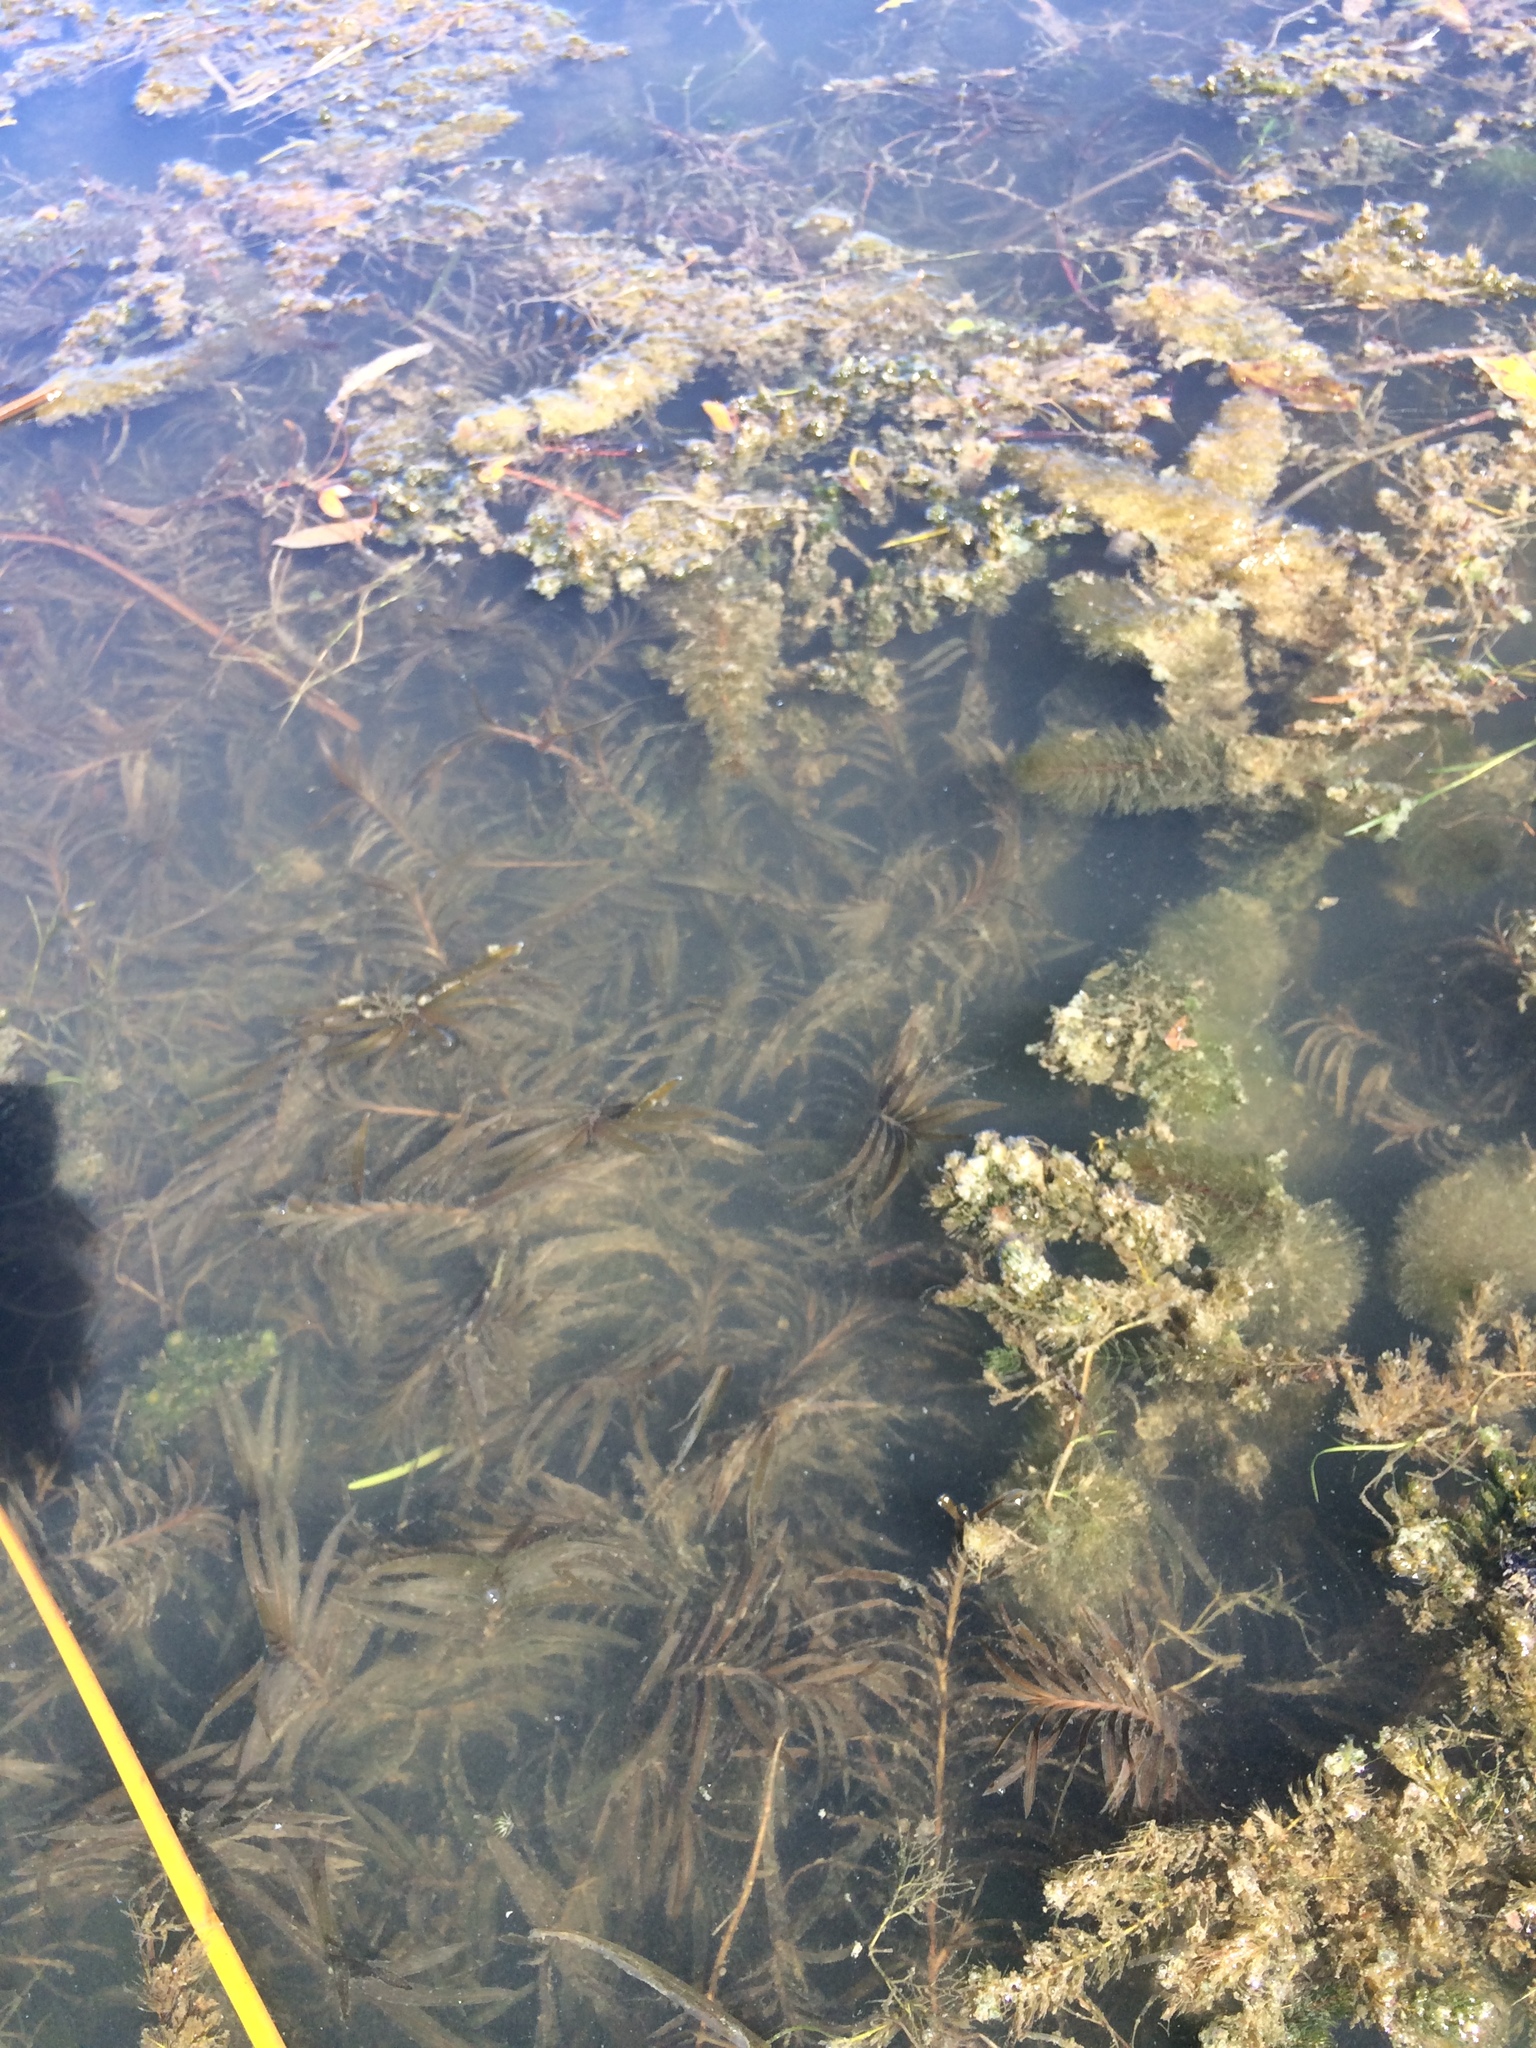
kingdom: Plantae
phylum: Tracheophyta
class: Liliopsida
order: Alismatales
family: Potamogetonaceae
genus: Potamogeton
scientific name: Potamogeton robbinsii
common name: Fern pondweed
